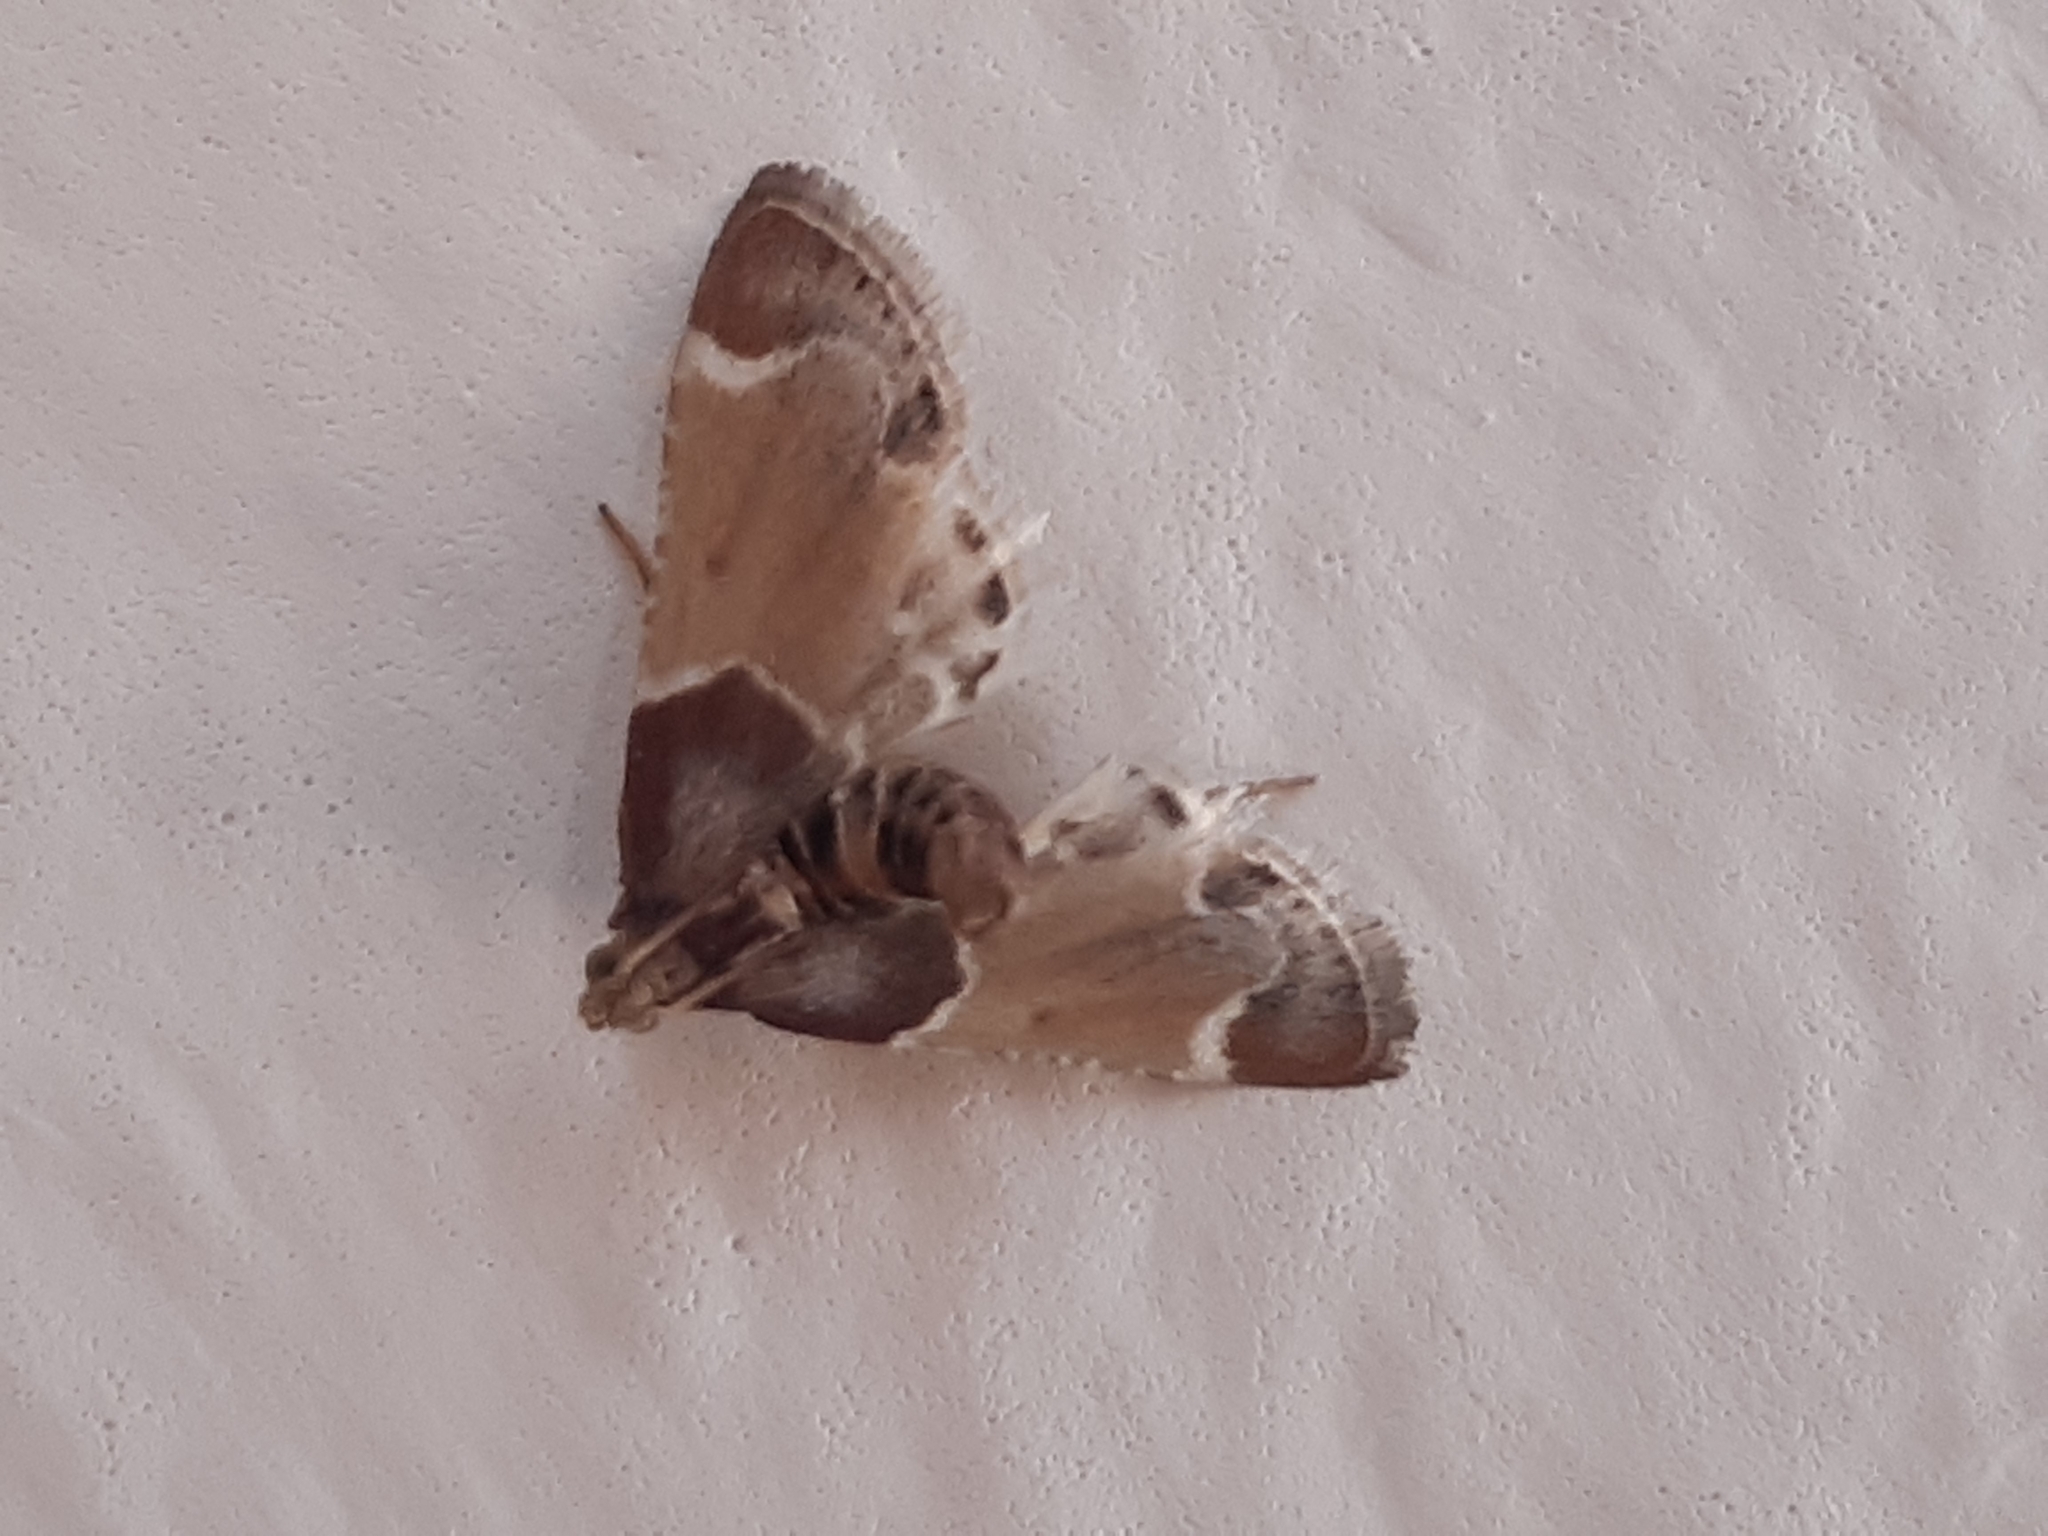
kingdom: Animalia
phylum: Arthropoda
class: Insecta
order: Lepidoptera
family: Pyralidae
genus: Pyralis
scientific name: Pyralis farinalis
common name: Meal moth
